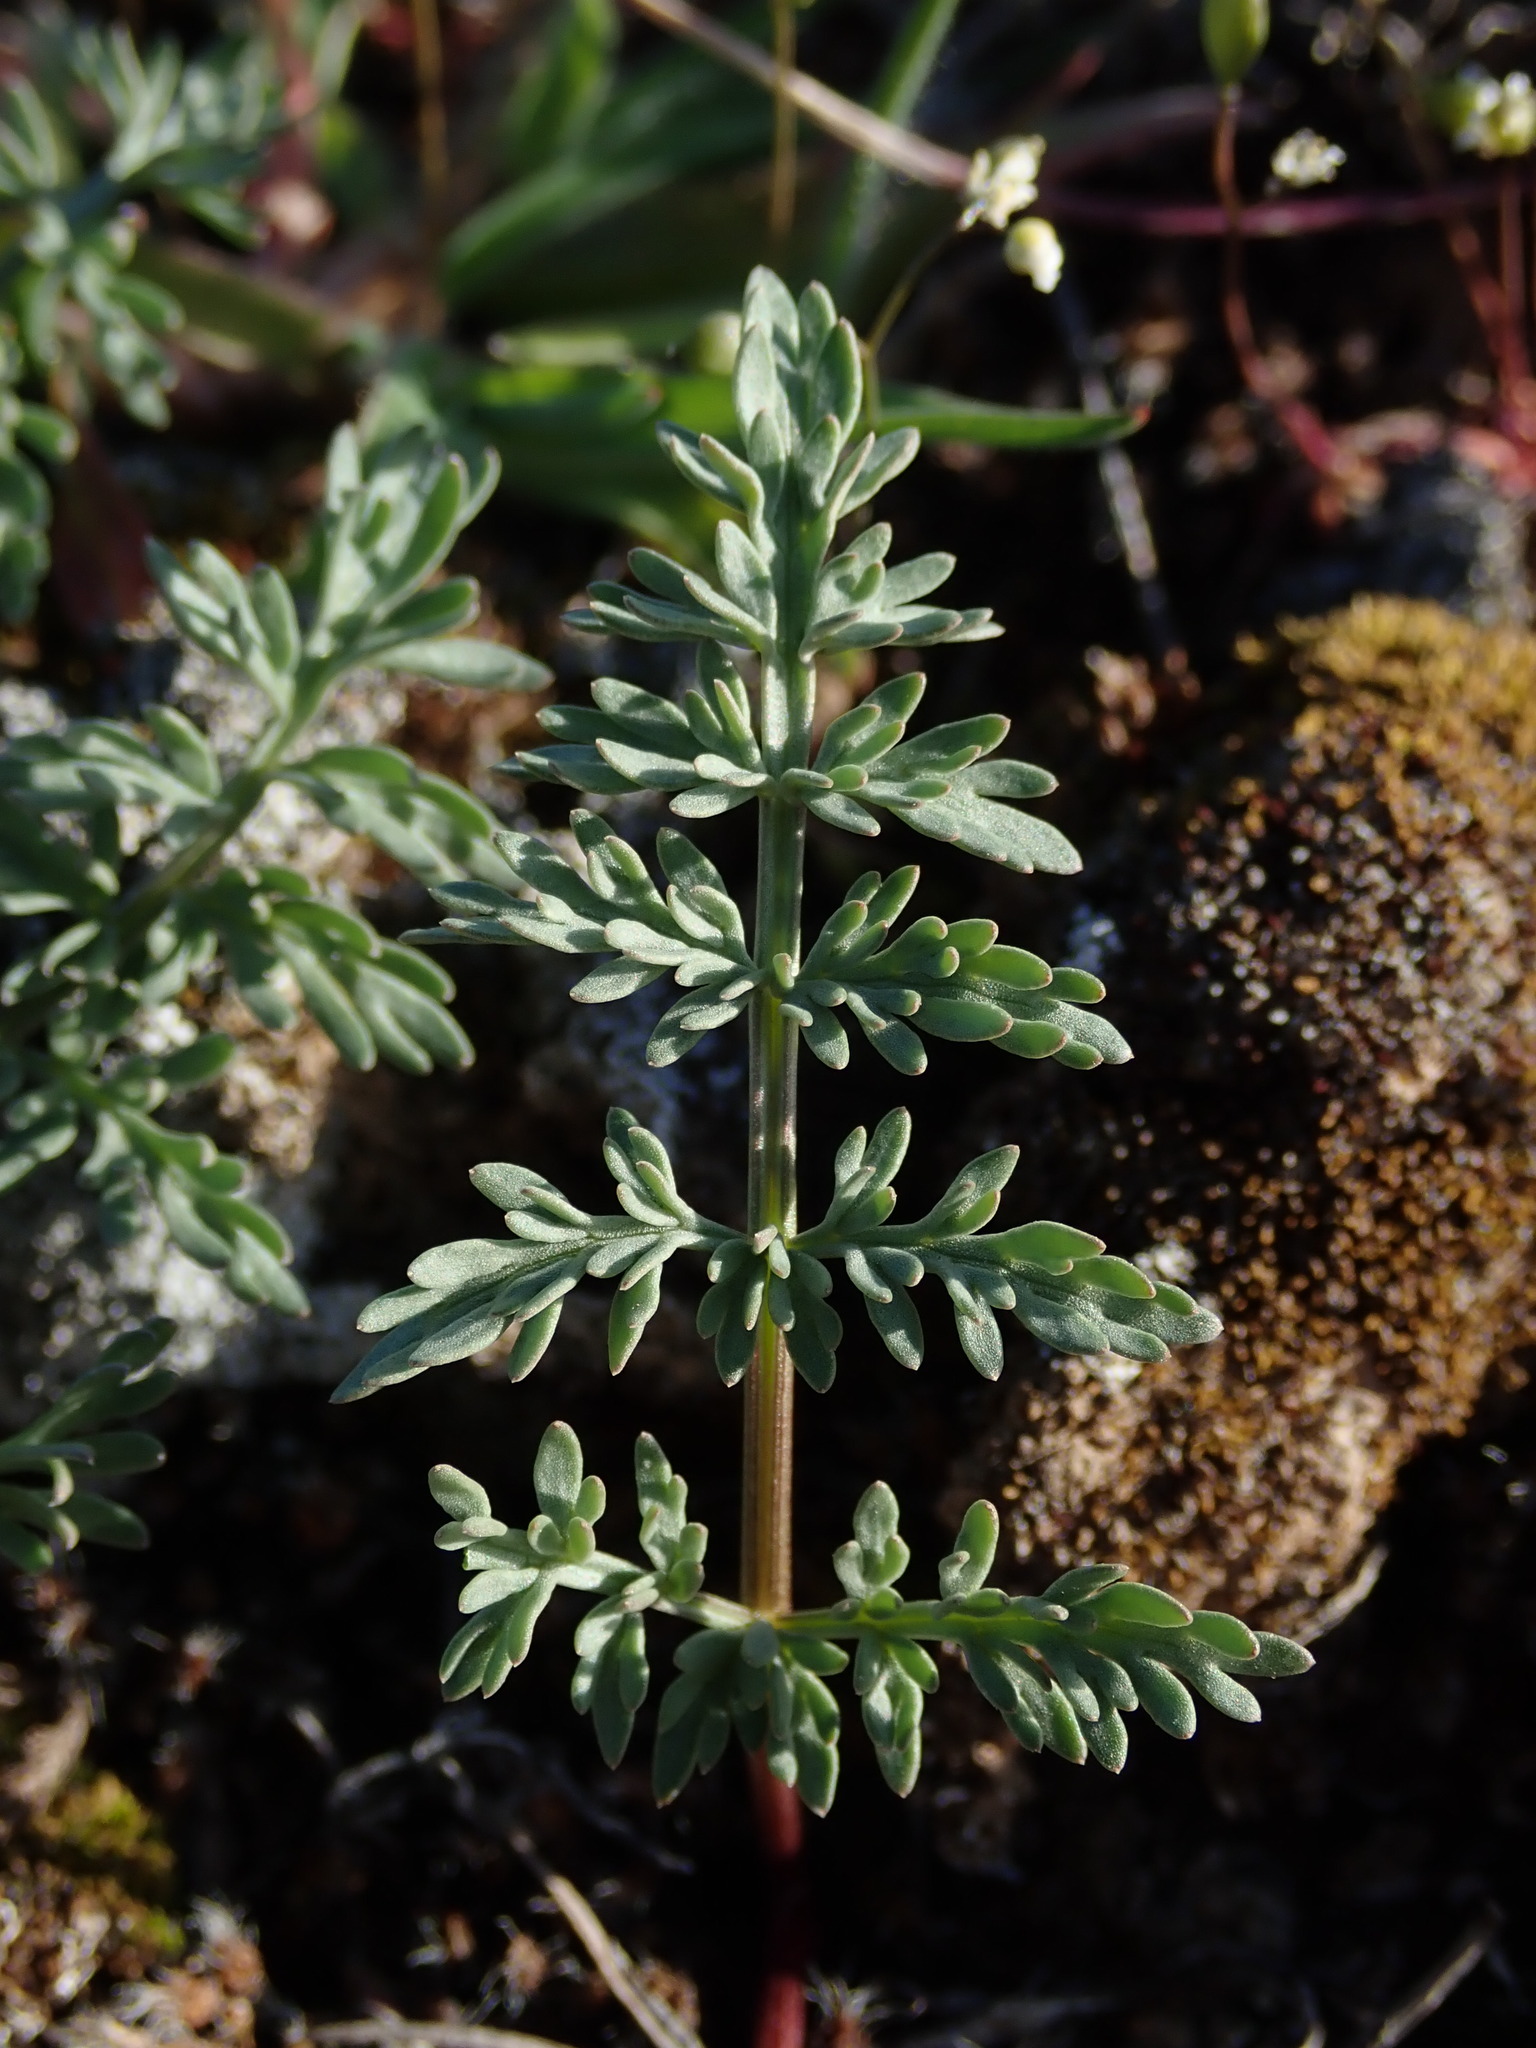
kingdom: Plantae
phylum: Tracheophyta
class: Magnoliopsida
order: Apiales
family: Apiaceae
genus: Lomatium
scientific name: Lomatium canbyi
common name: Chucklusa
